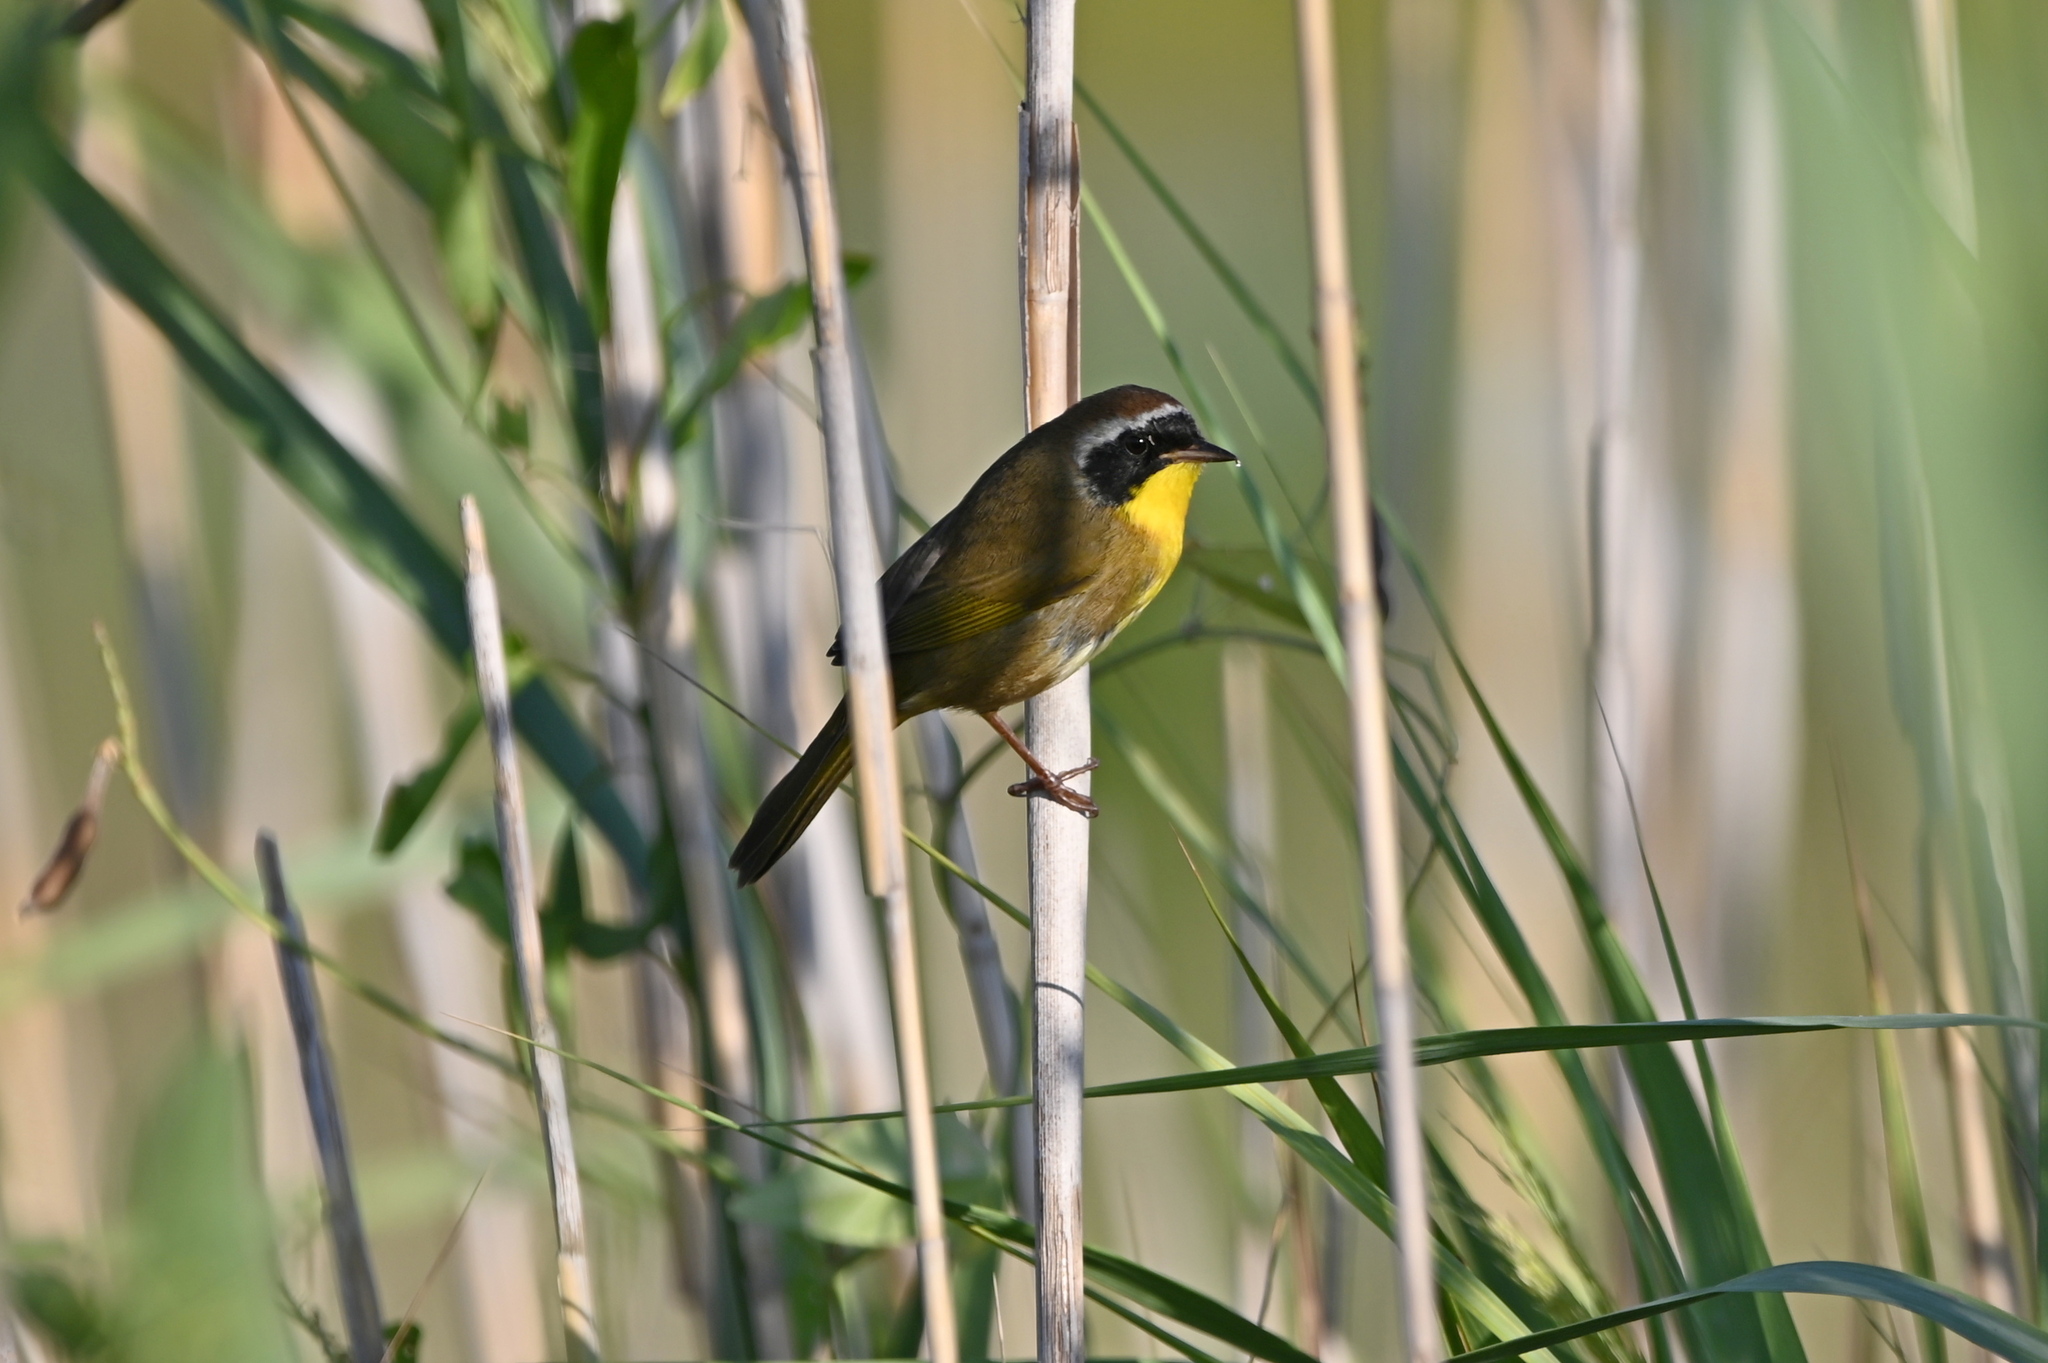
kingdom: Animalia
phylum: Chordata
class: Aves
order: Passeriformes
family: Parulidae
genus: Geothlypis
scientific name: Geothlypis trichas
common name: Common yellowthroat
